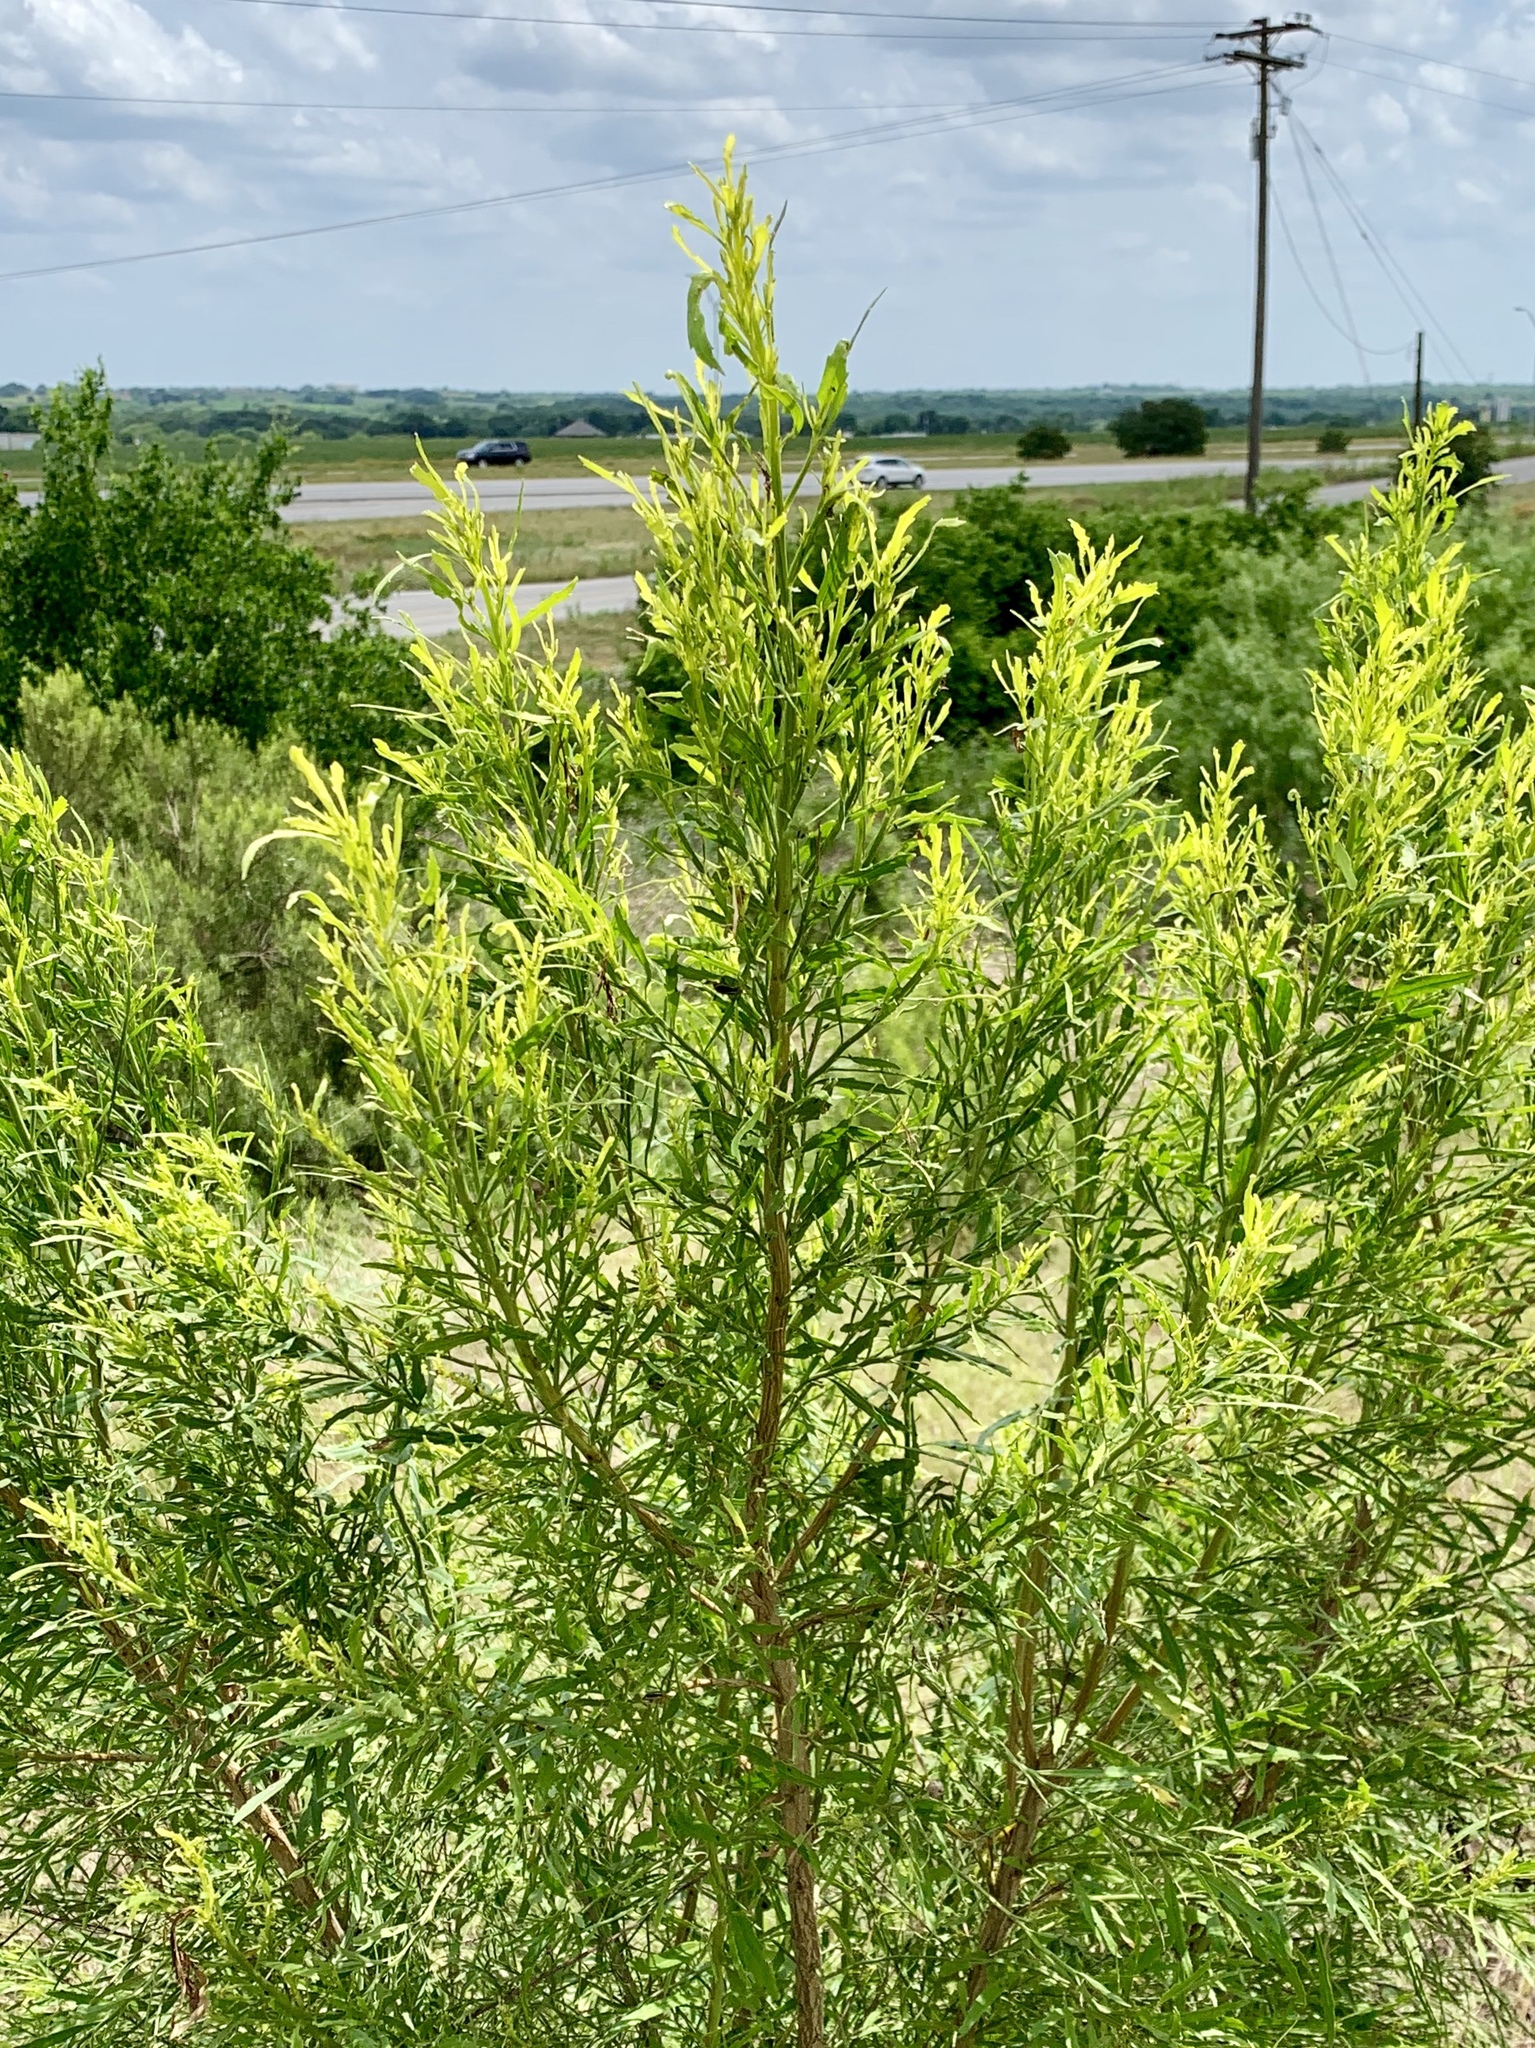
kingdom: Plantae
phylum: Tracheophyta
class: Magnoliopsida
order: Asterales
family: Asteraceae
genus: Baccharis
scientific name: Baccharis neglecta
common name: Roosevelt-weed
